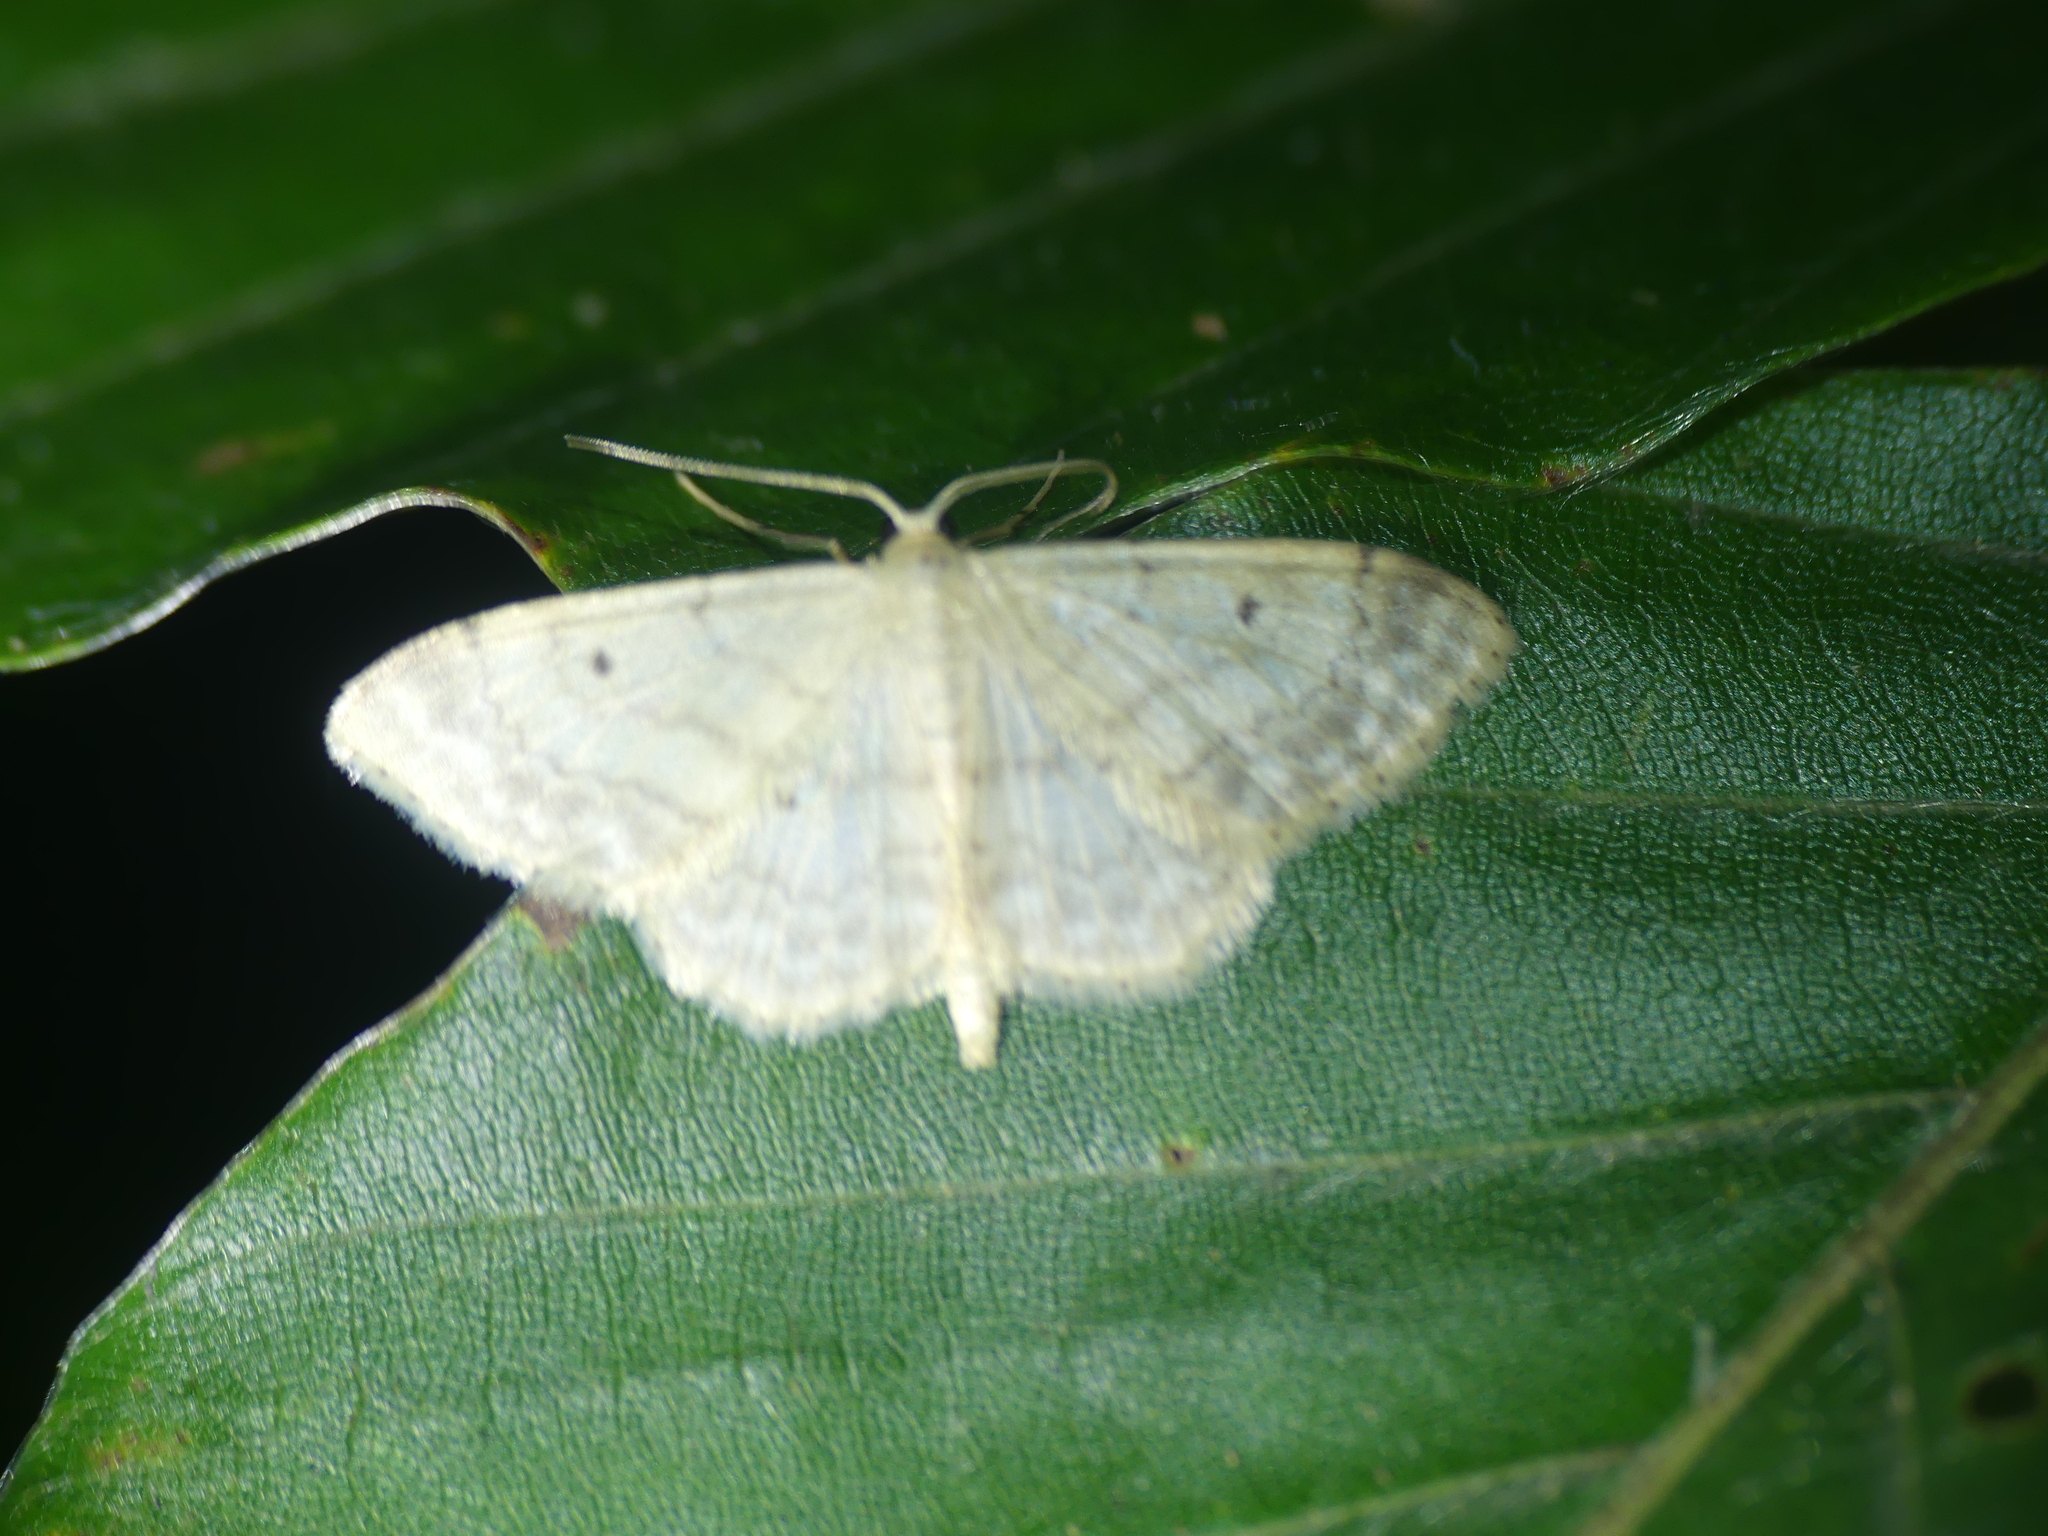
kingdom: Animalia
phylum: Arthropoda
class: Insecta
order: Lepidoptera
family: Geometridae
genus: Idaea
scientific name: Idaea biselata
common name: Small fan-footed wave
